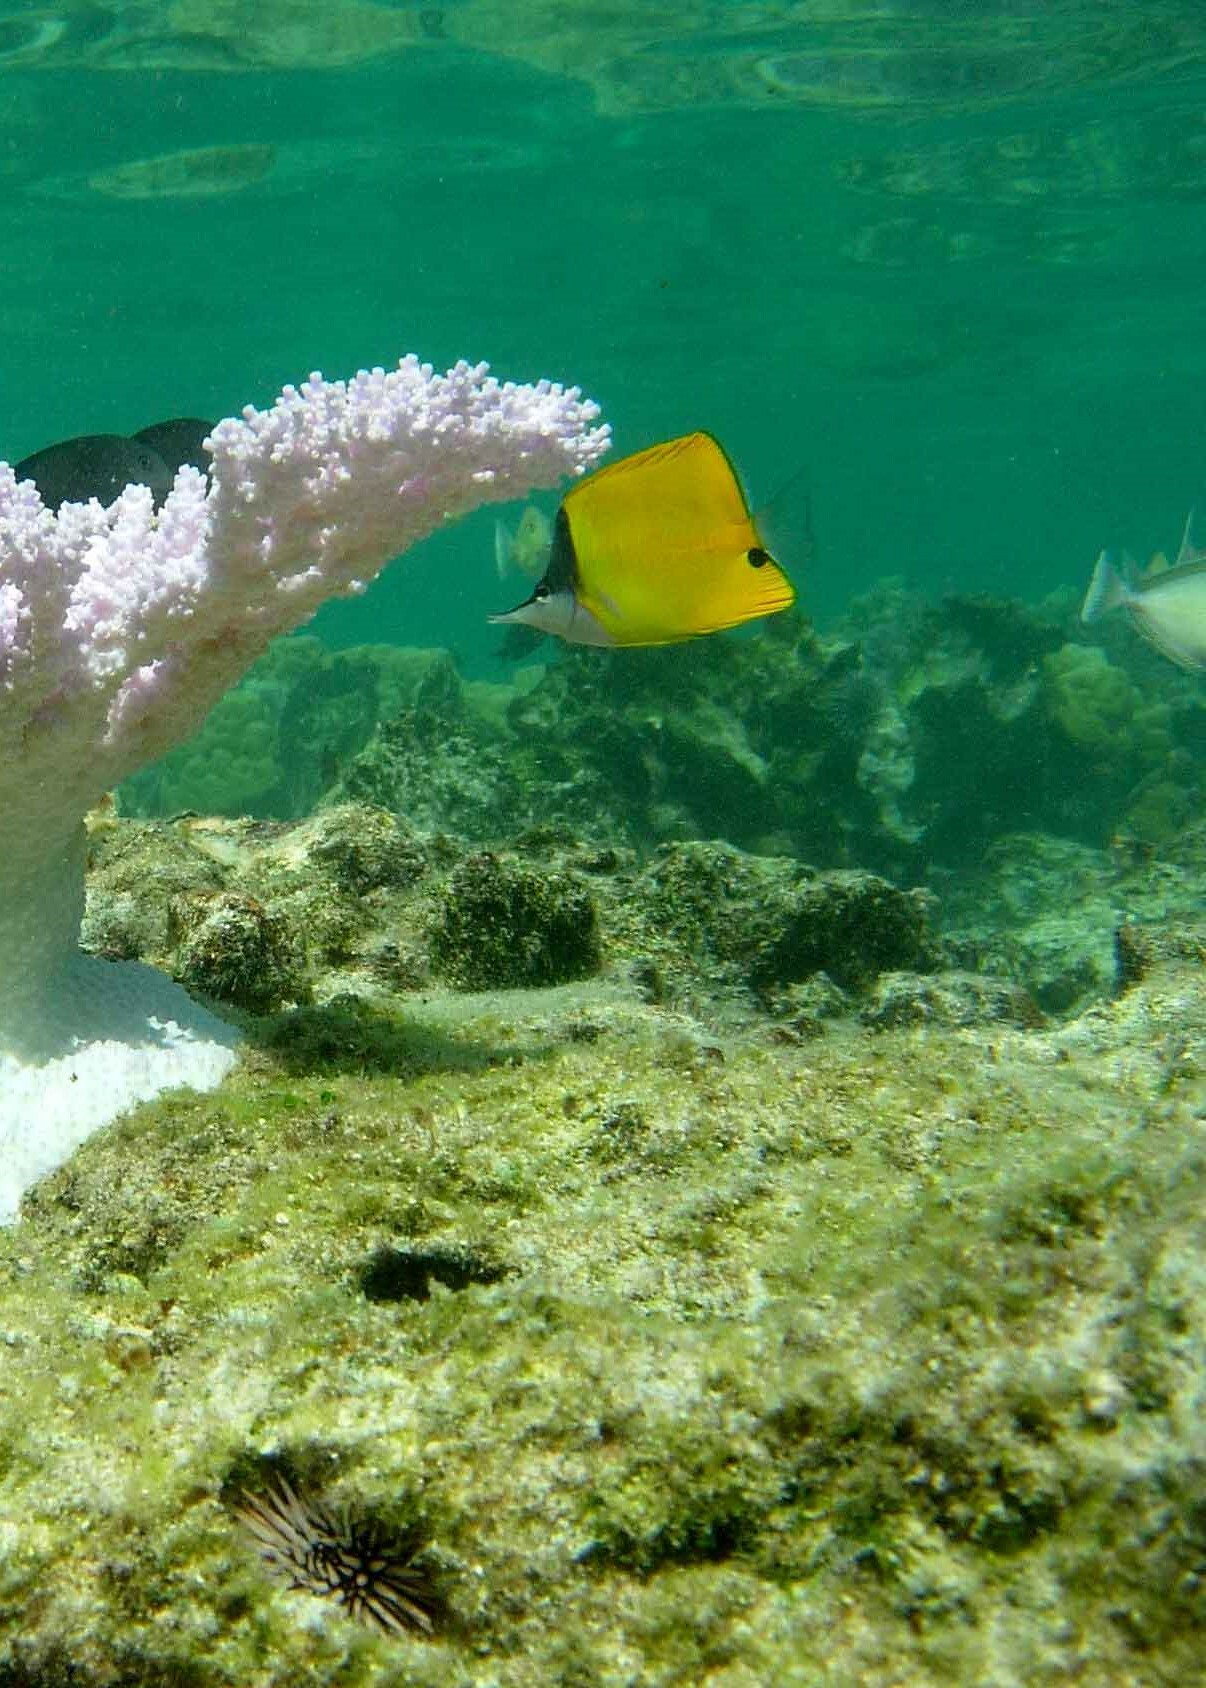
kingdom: Animalia
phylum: Chordata
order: Perciformes
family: Chaetodontidae
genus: Forcipiger
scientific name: Forcipiger flavissimus
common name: Forcepsfish
